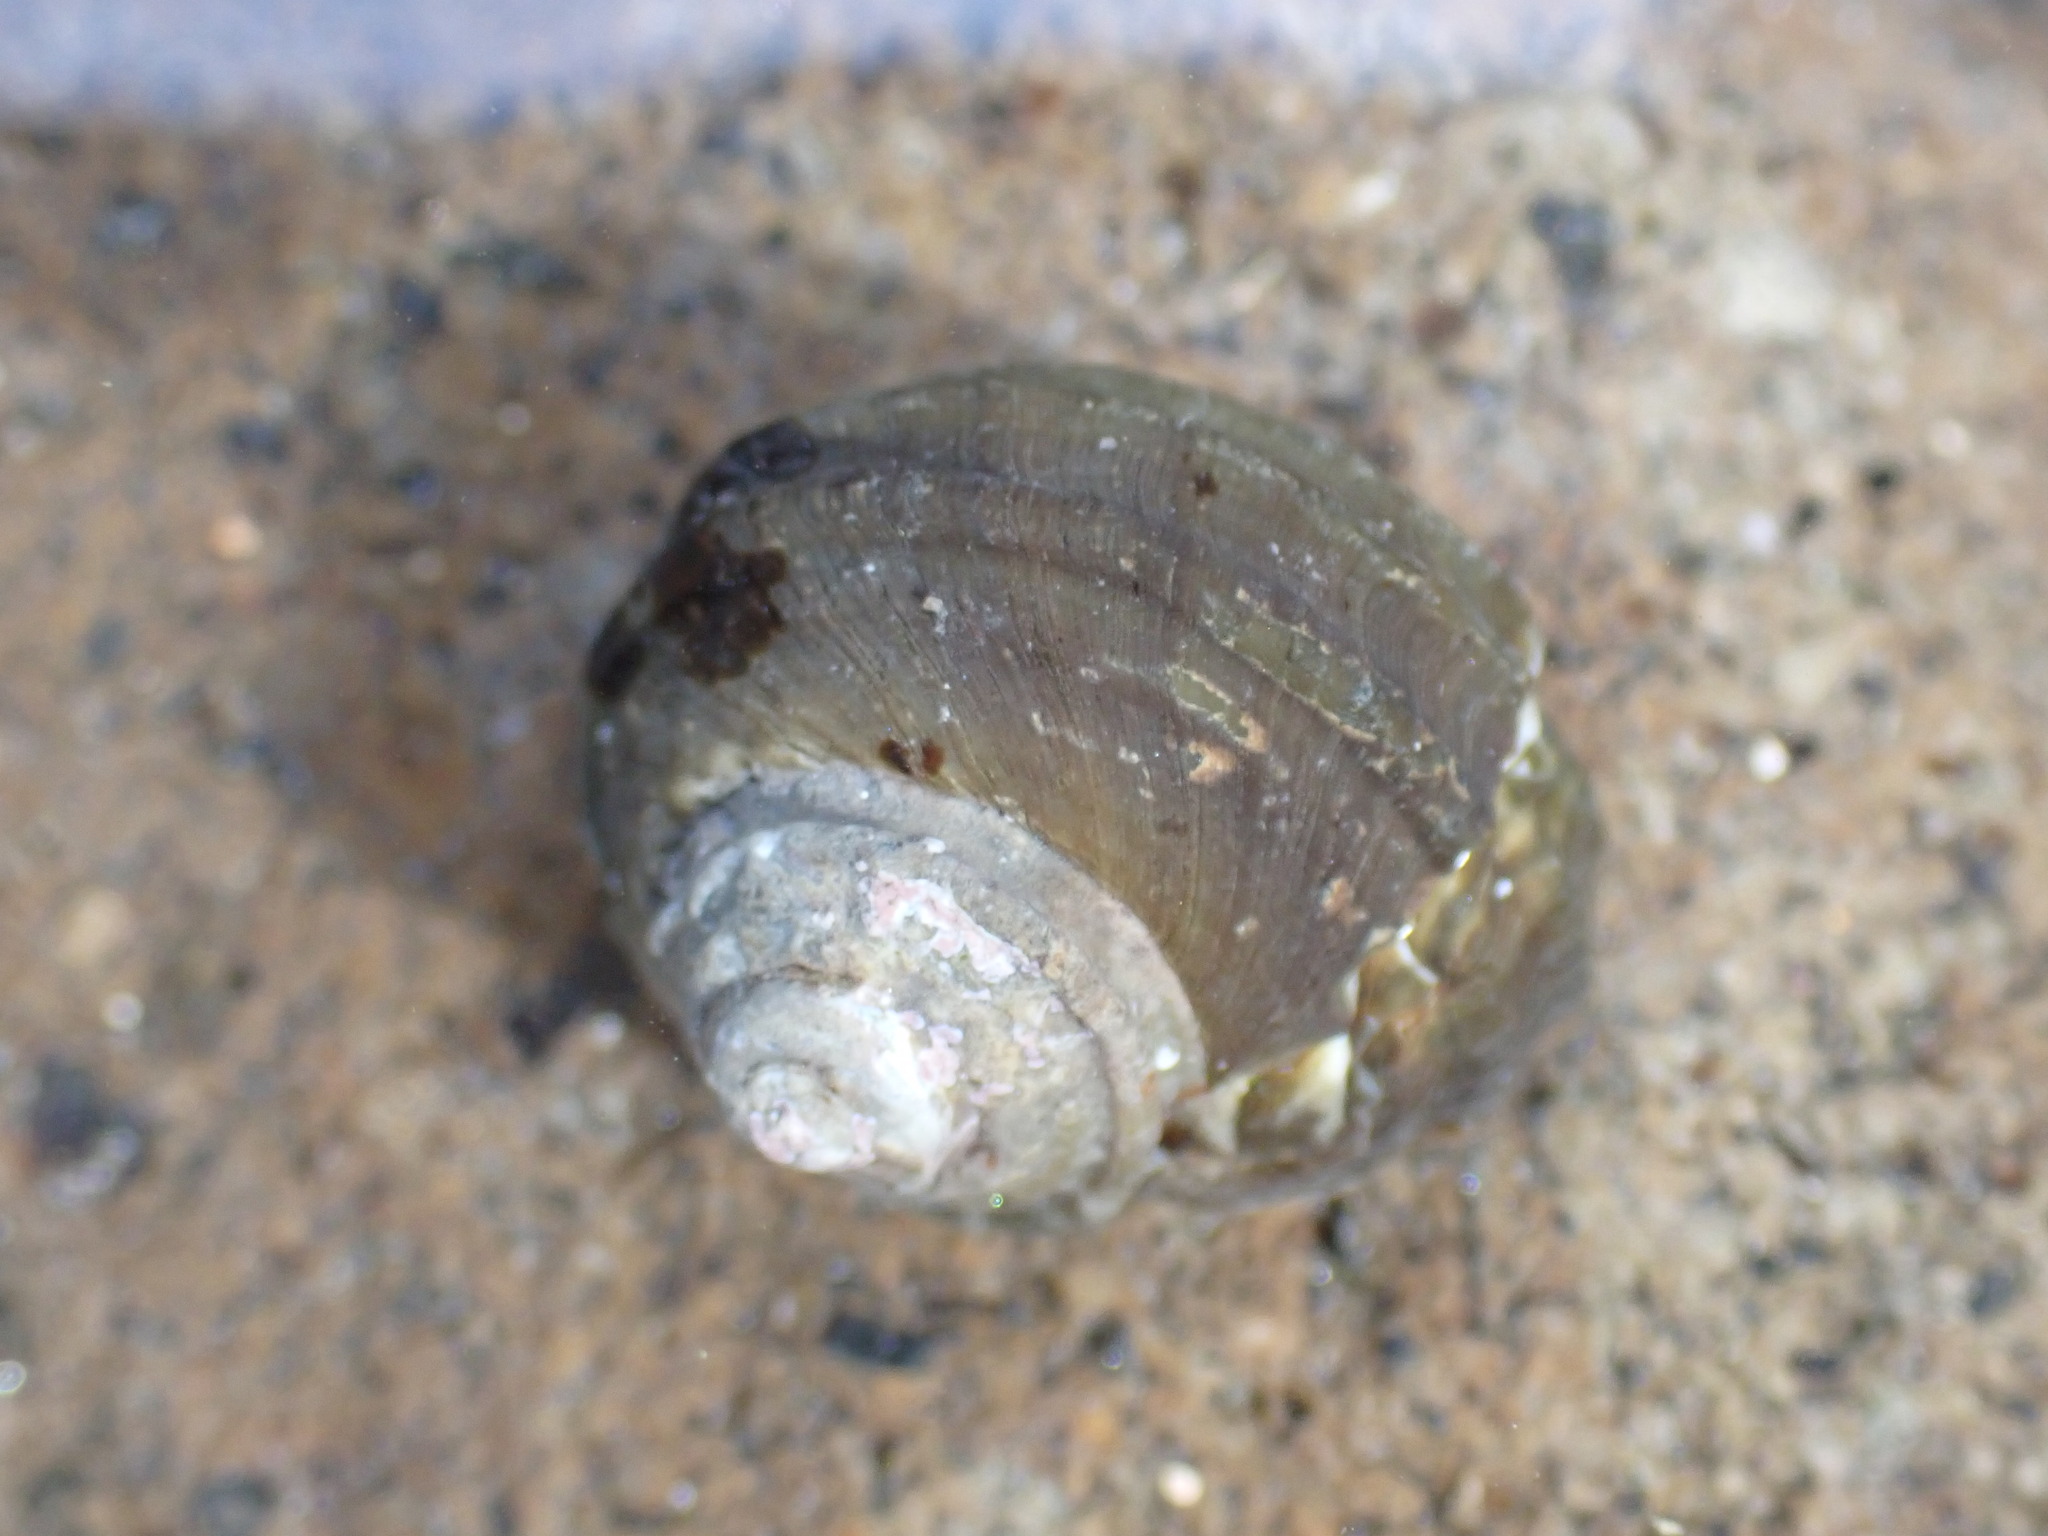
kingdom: Animalia
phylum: Mollusca
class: Gastropoda
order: Trochida
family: Turbinidae
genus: Lunella
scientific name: Lunella smaragda
